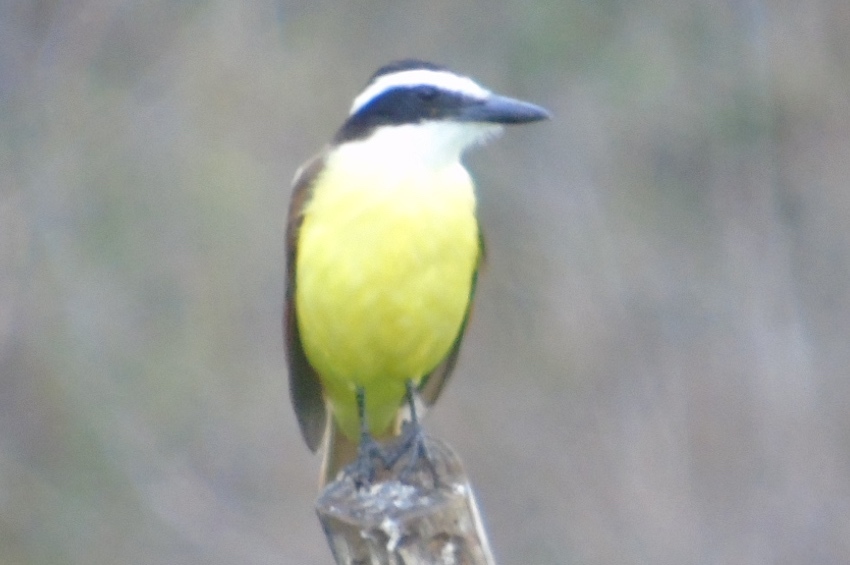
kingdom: Animalia
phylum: Chordata
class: Aves
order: Passeriformes
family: Tyrannidae
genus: Pitangus
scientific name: Pitangus sulphuratus
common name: Great kiskadee
